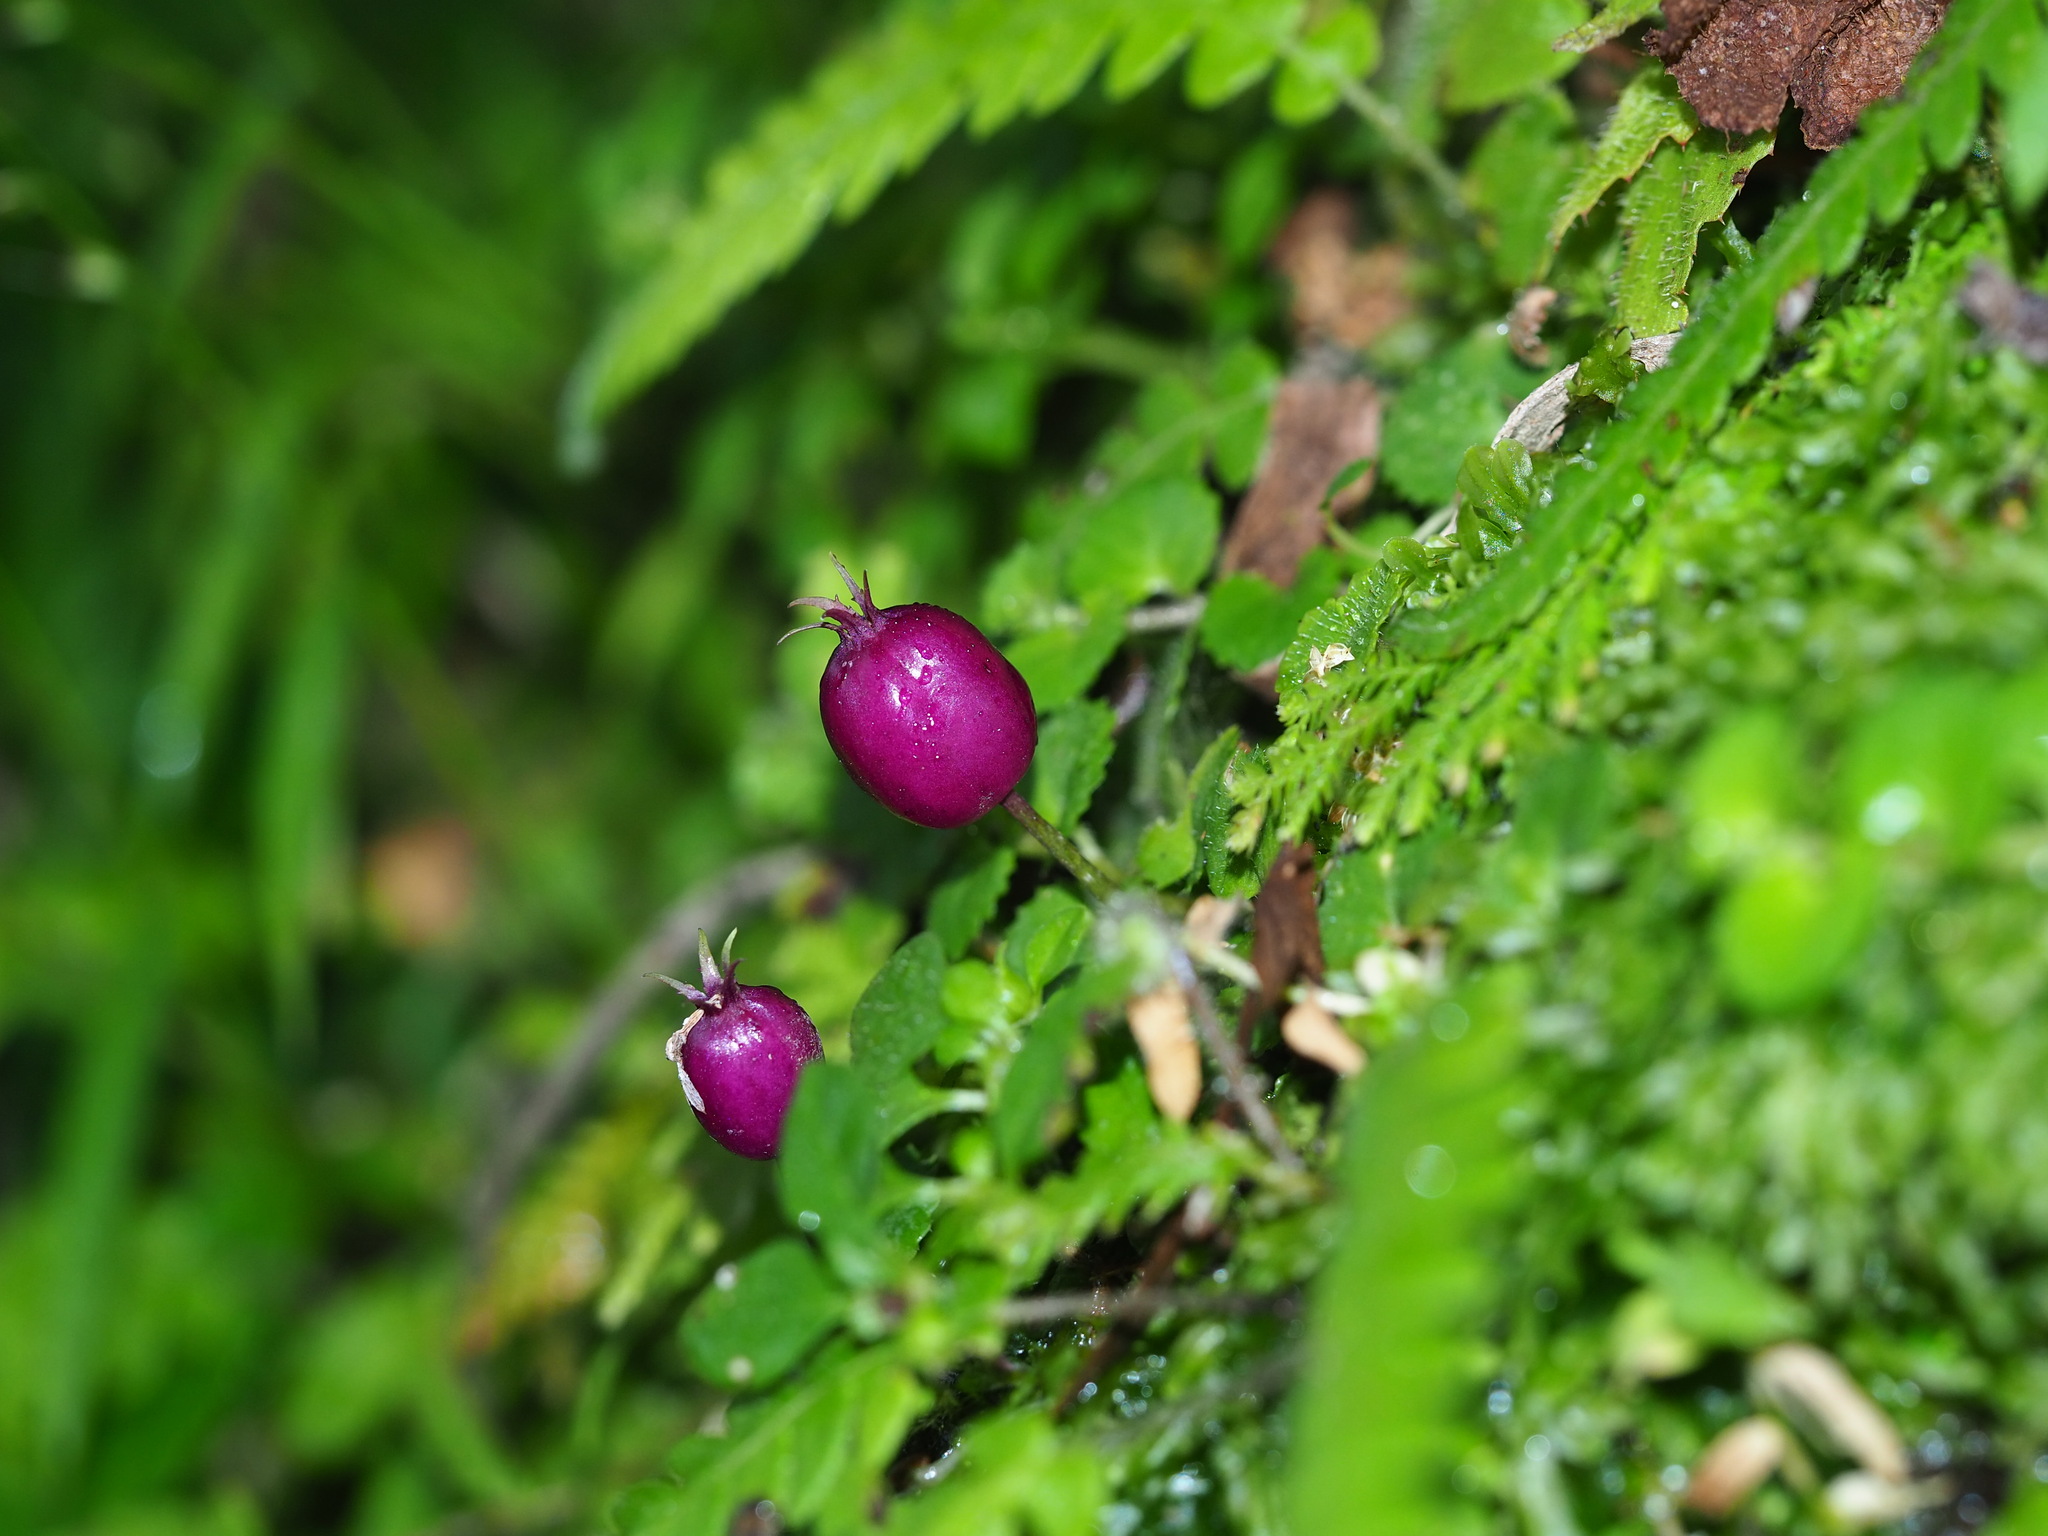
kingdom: Plantae
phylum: Tracheophyta
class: Magnoliopsida
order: Asterales
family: Campanulaceae
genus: Lobelia
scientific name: Lobelia nummularia
